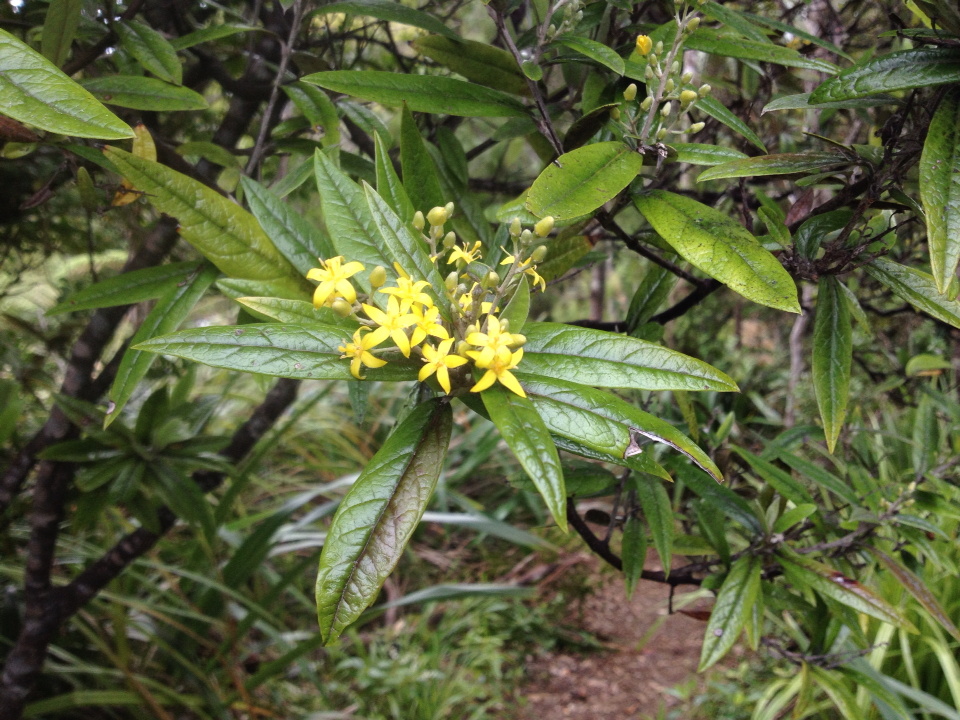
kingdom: Plantae
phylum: Tracheophyta
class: Magnoliopsida
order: Asterales
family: Argophyllaceae
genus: Corokia
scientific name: Corokia buddleioides
